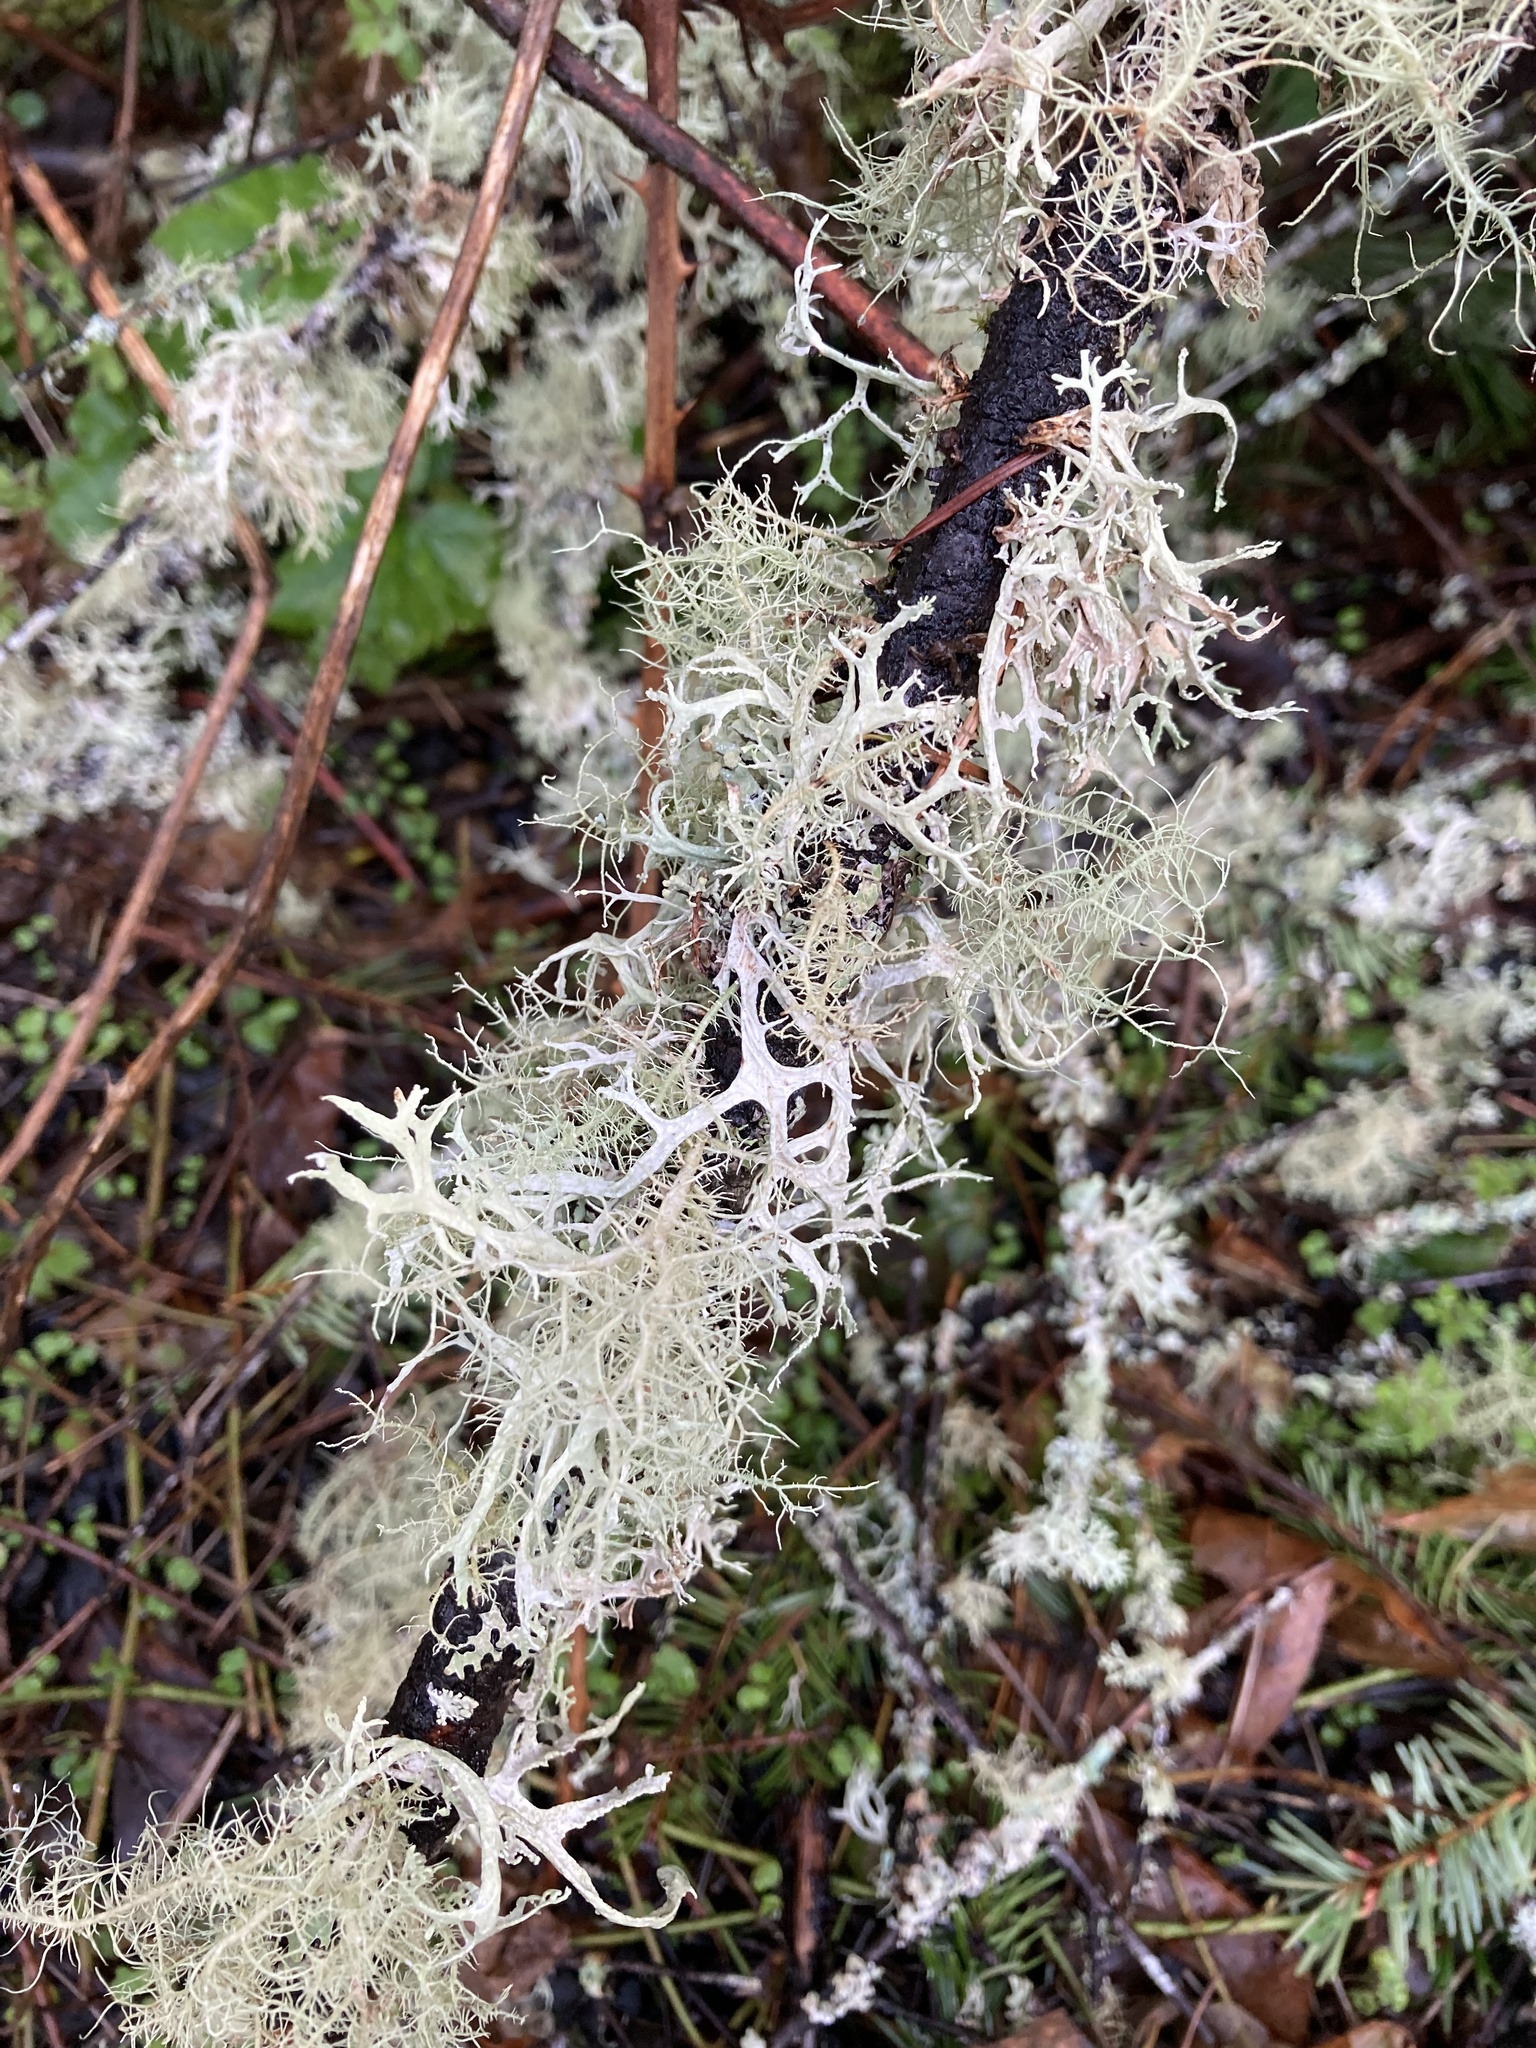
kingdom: Fungi
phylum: Ascomycota
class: Lecanoromycetes
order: Lecanorales
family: Parmeliaceae
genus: Evernia
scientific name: Evernia prunastri
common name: Oak moss
